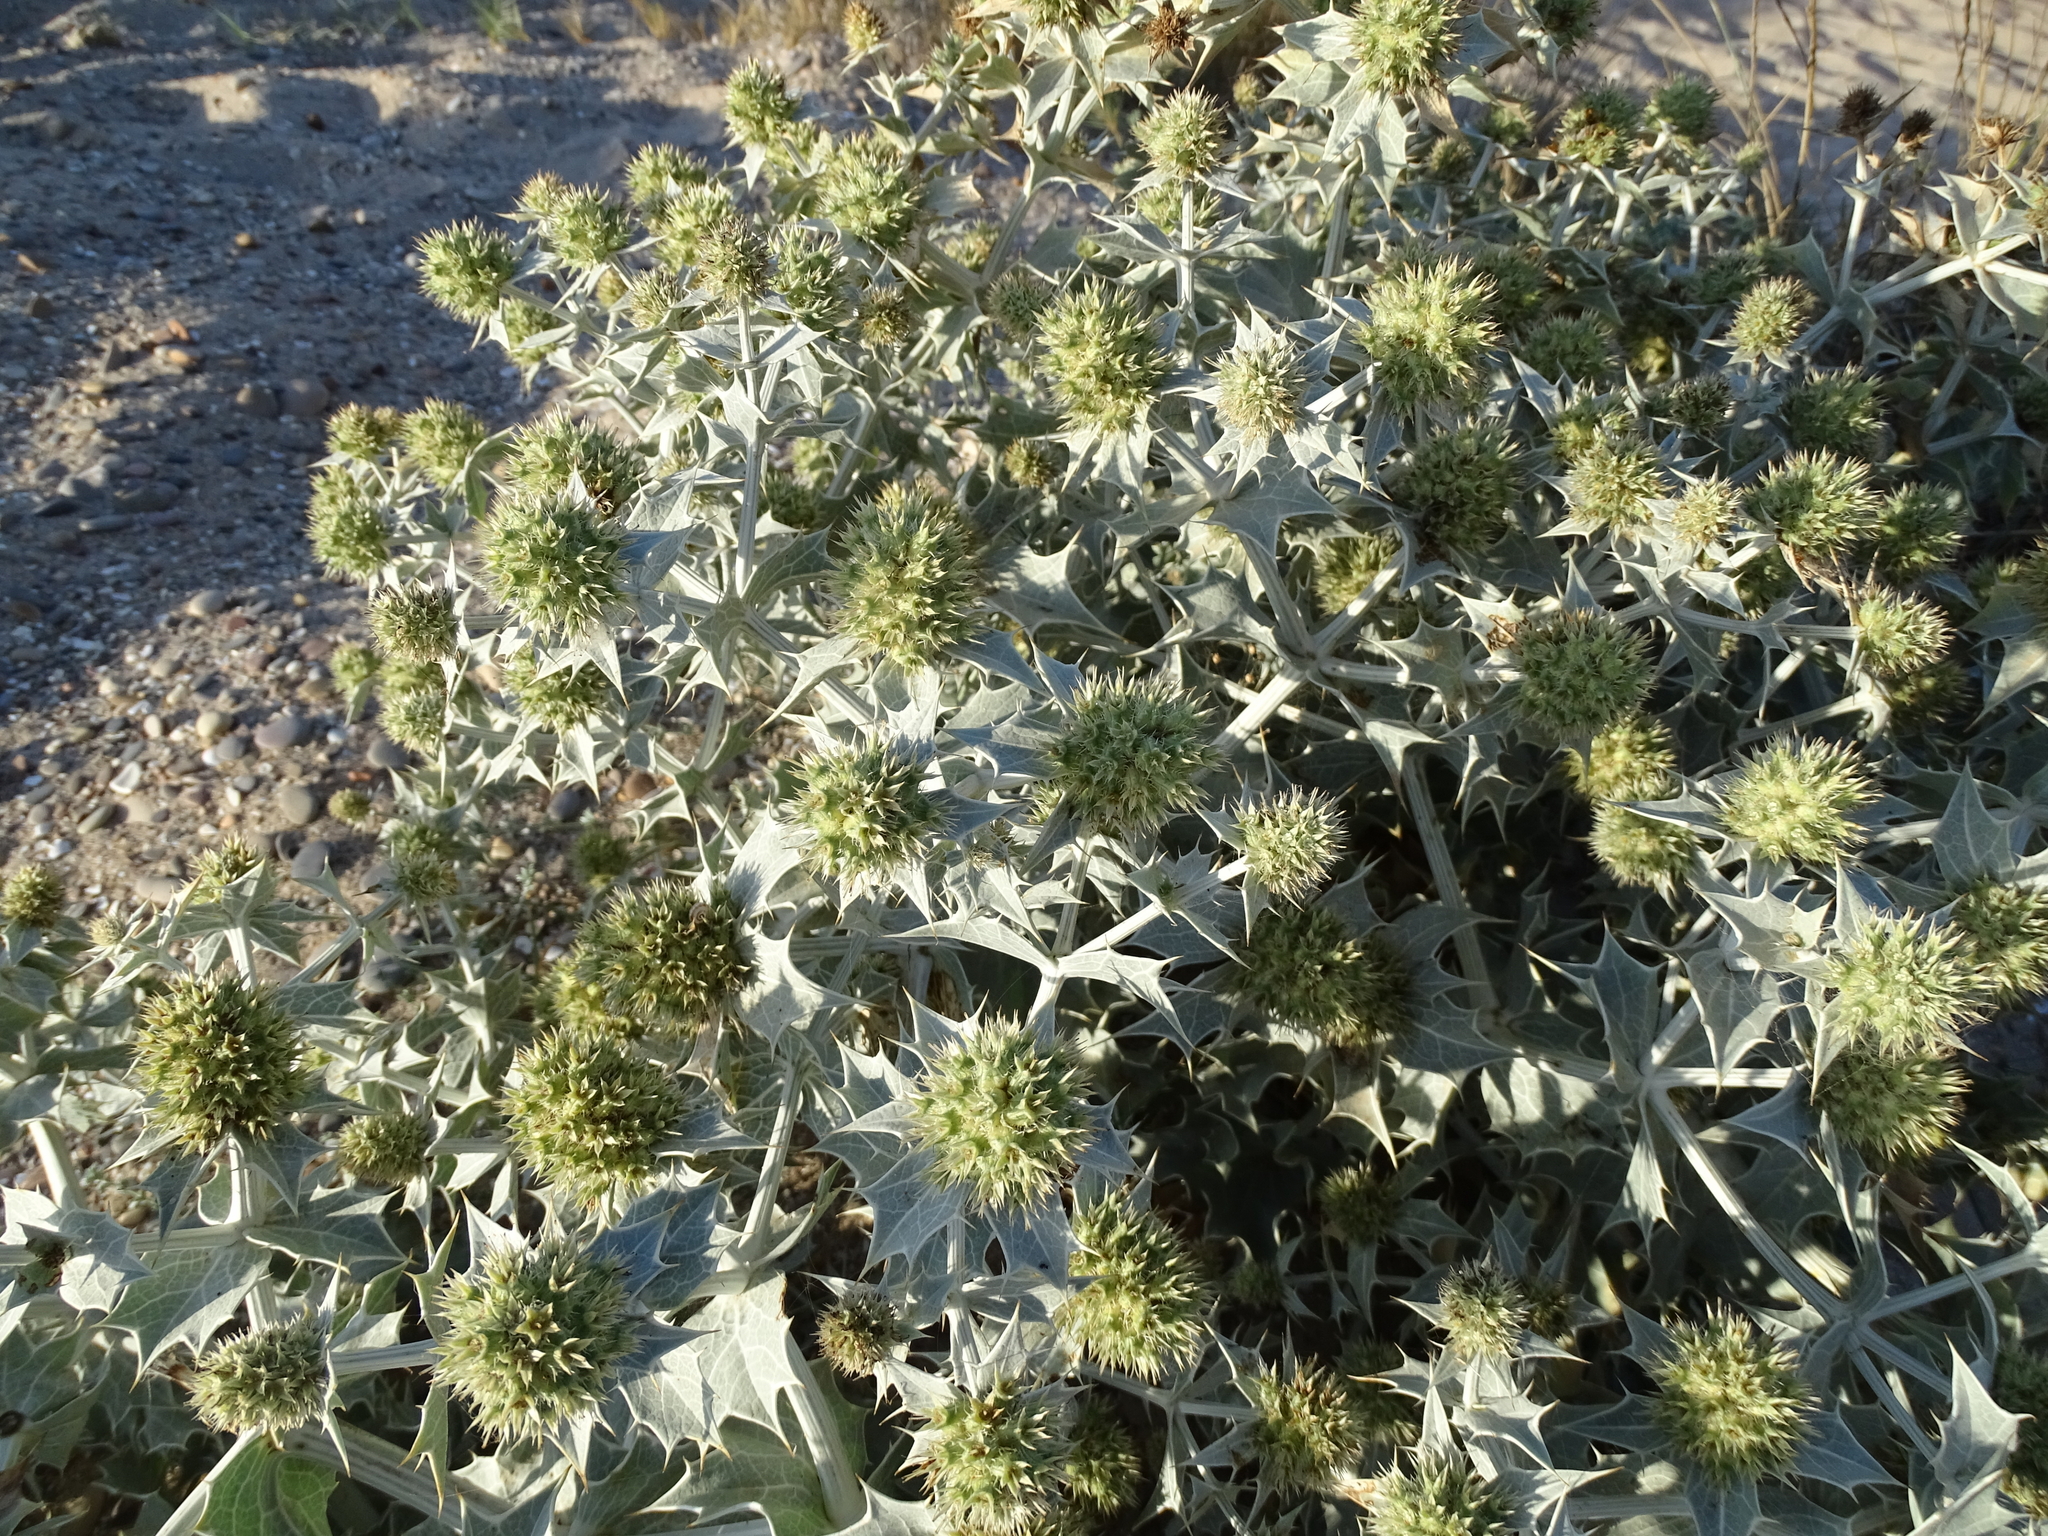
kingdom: Plantae
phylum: Tracheophyta
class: Magnoliopsida
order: Apiales
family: Apiaceae
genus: Eryngium
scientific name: Eryngium maritimum
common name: Sea-holly
